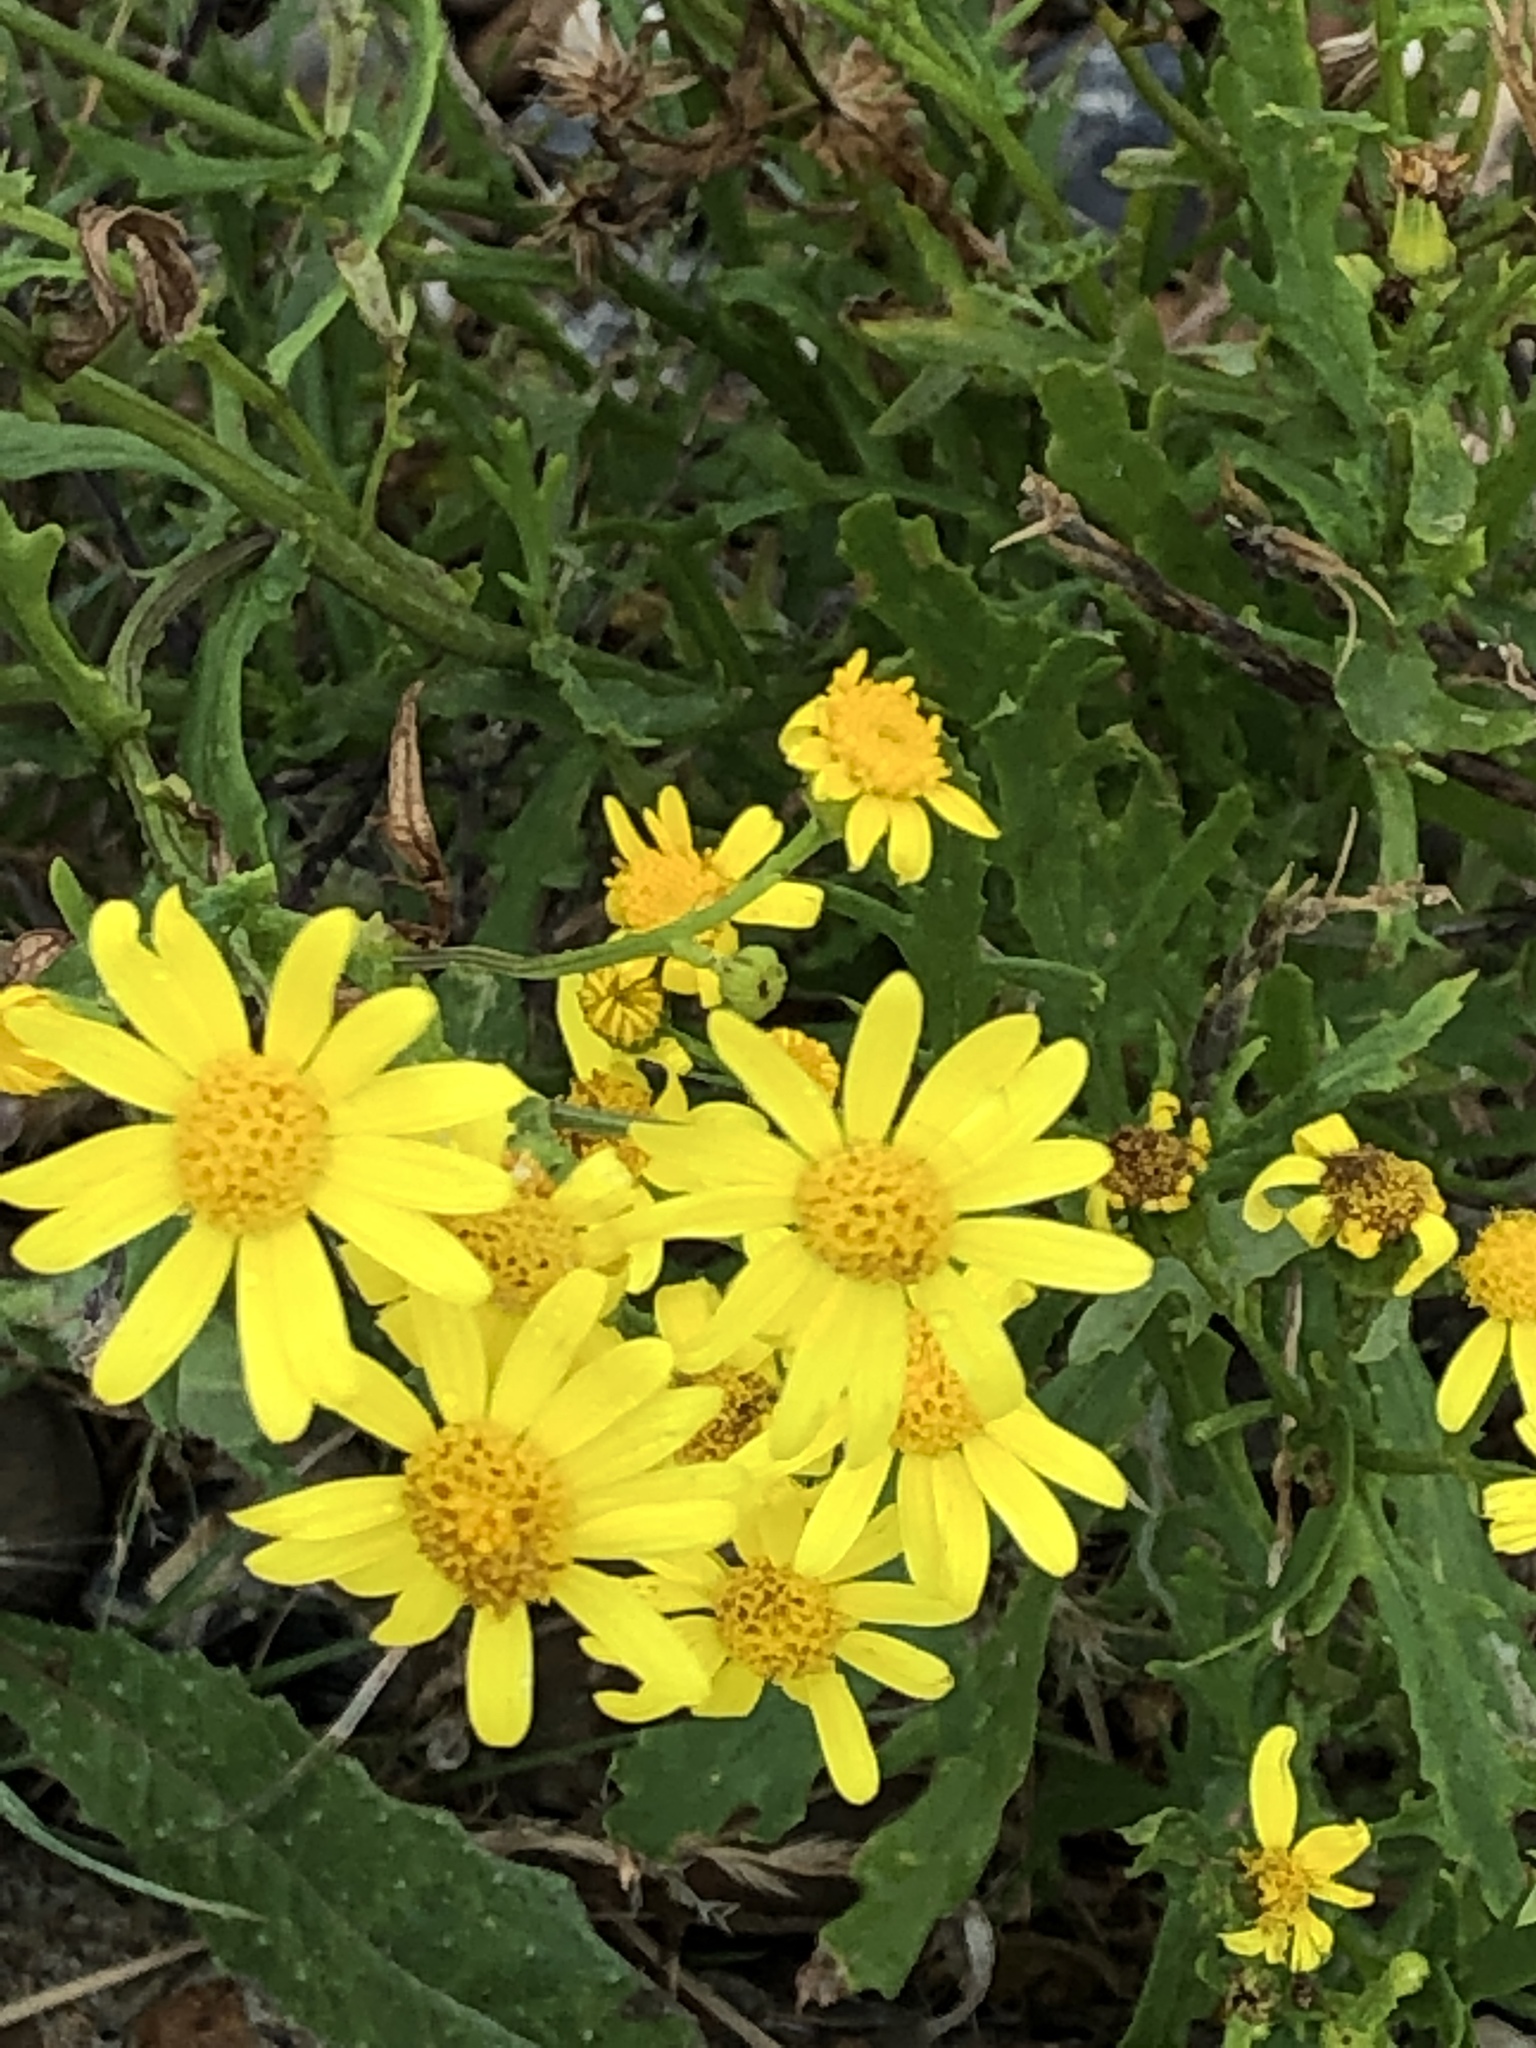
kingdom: Plantae
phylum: Tracheophyta
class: Magnoliopsida
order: Asterales
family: Asteraceae
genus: Senecio
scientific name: Senecio inaequidens
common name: Narrow-leaved ragwort
